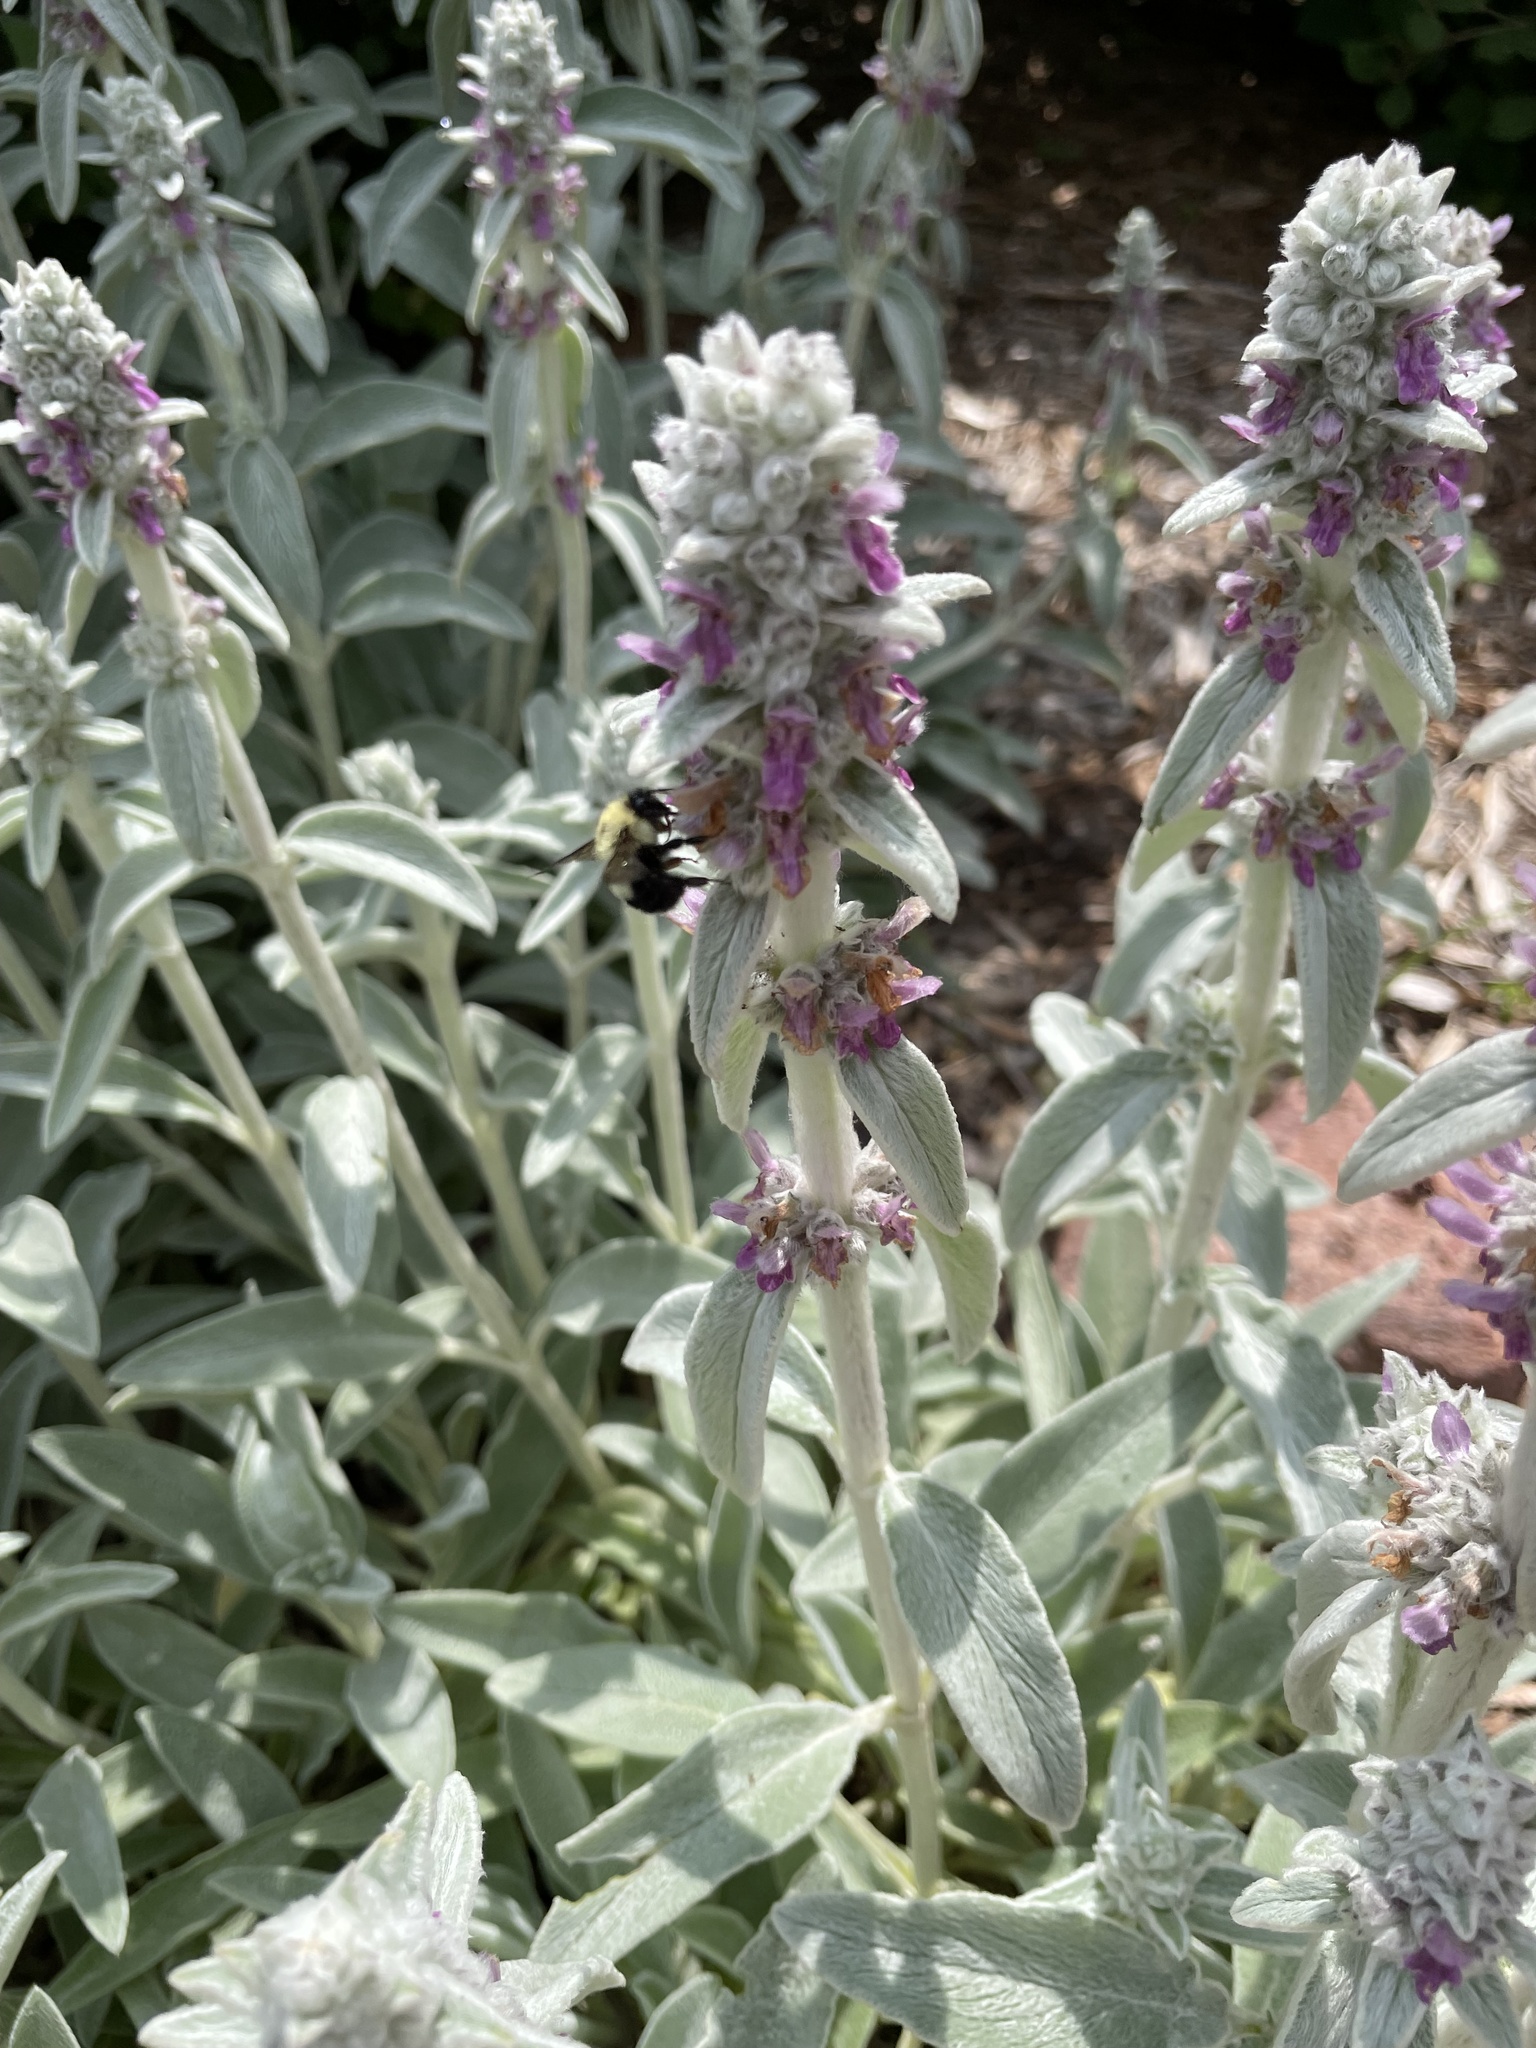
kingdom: Animalia
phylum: Arthropoda
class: Insecta
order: Hymenoptera
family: Apidae
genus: Bombus
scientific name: Bombus bimaculatus
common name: Two-spotted bumble bee
